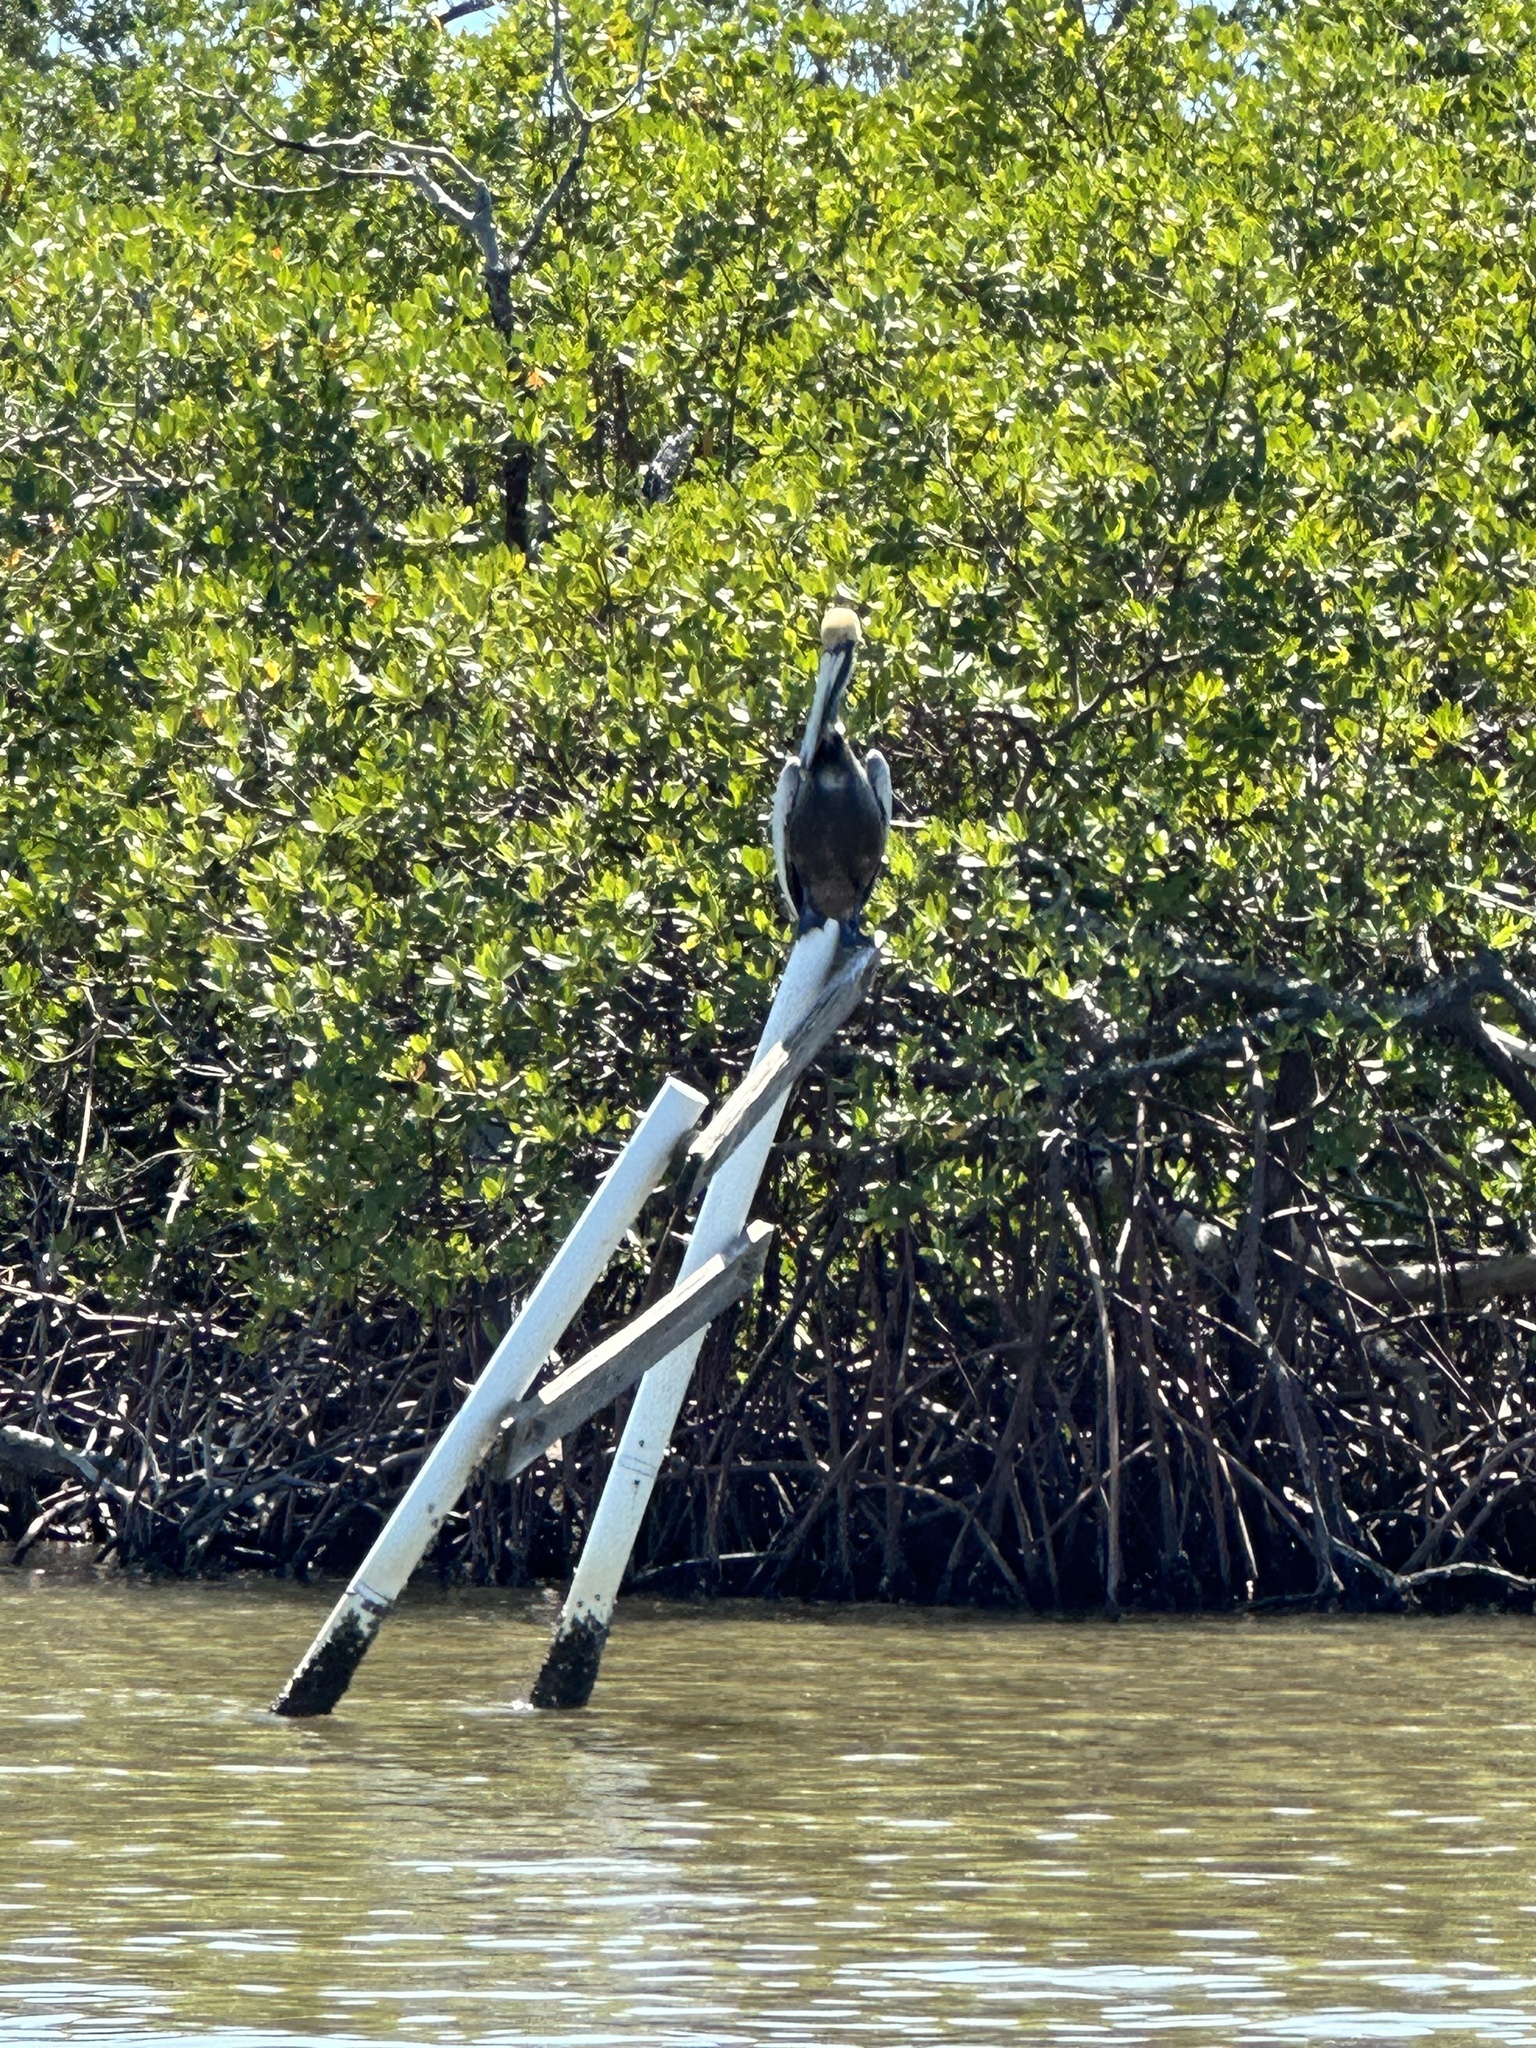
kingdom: Animalia
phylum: Chordata
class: Aves
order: Pelecaniformes
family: Pelecanidae
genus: Pelecanus
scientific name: Pelecanus occidentalis
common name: Brown pelican
